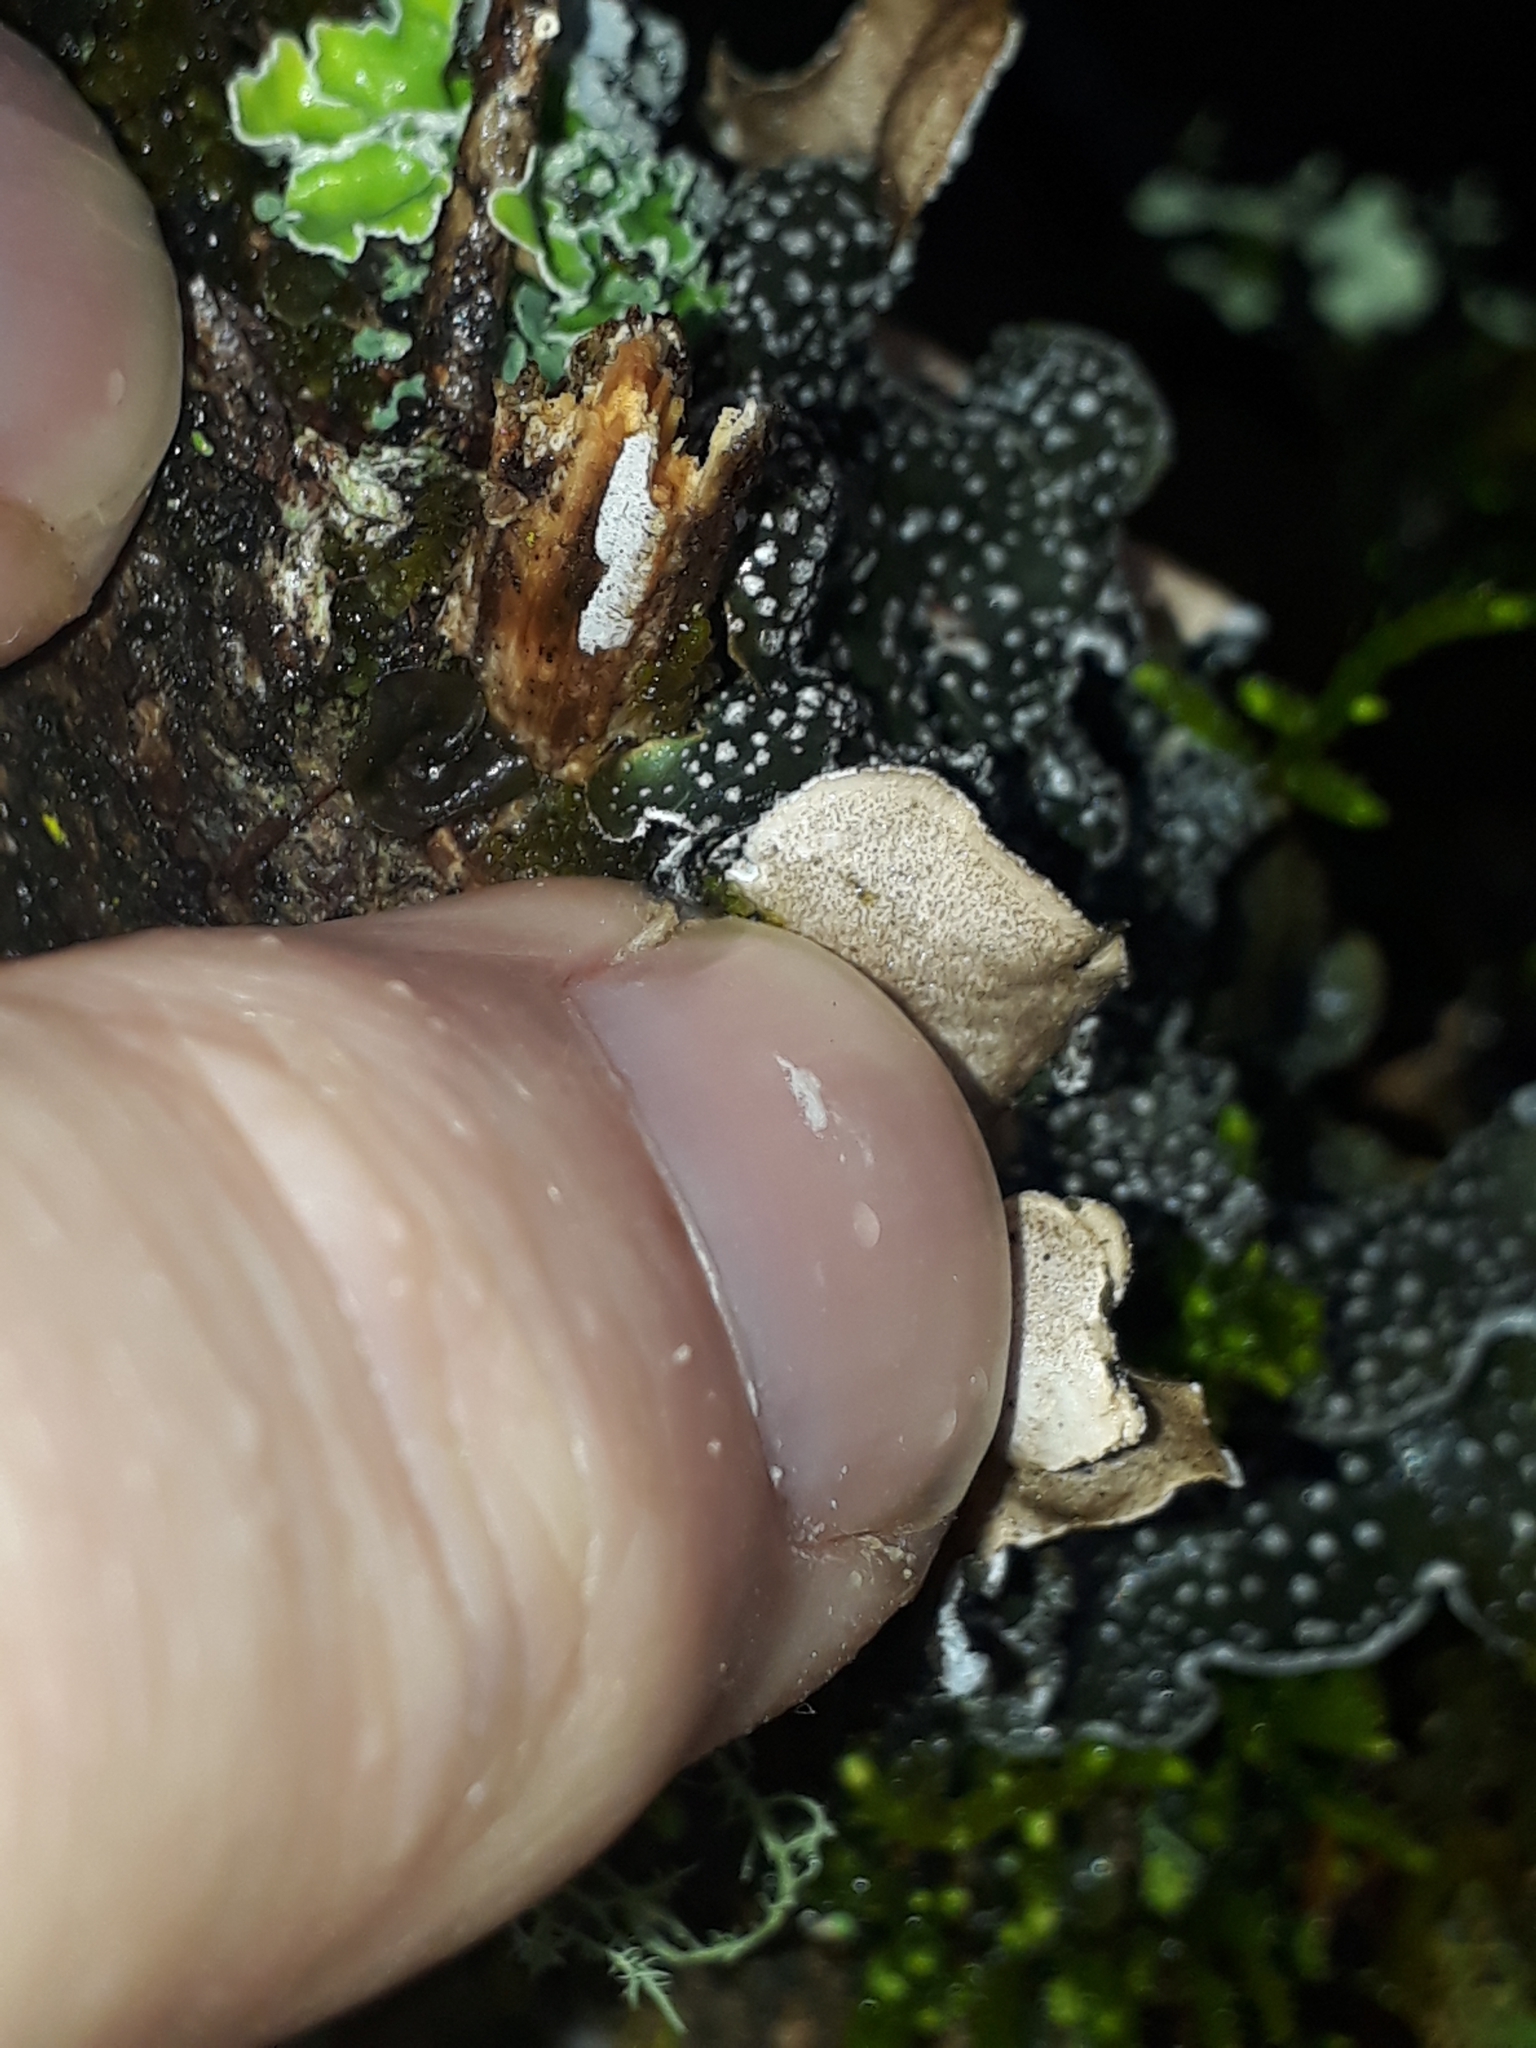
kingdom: Fungi
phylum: Ascomycota
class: Lecanoromycetes
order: Peltigerales
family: Lobariaceae
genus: Pseudocyphellaria
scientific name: Pseudocyphellaria intricata
